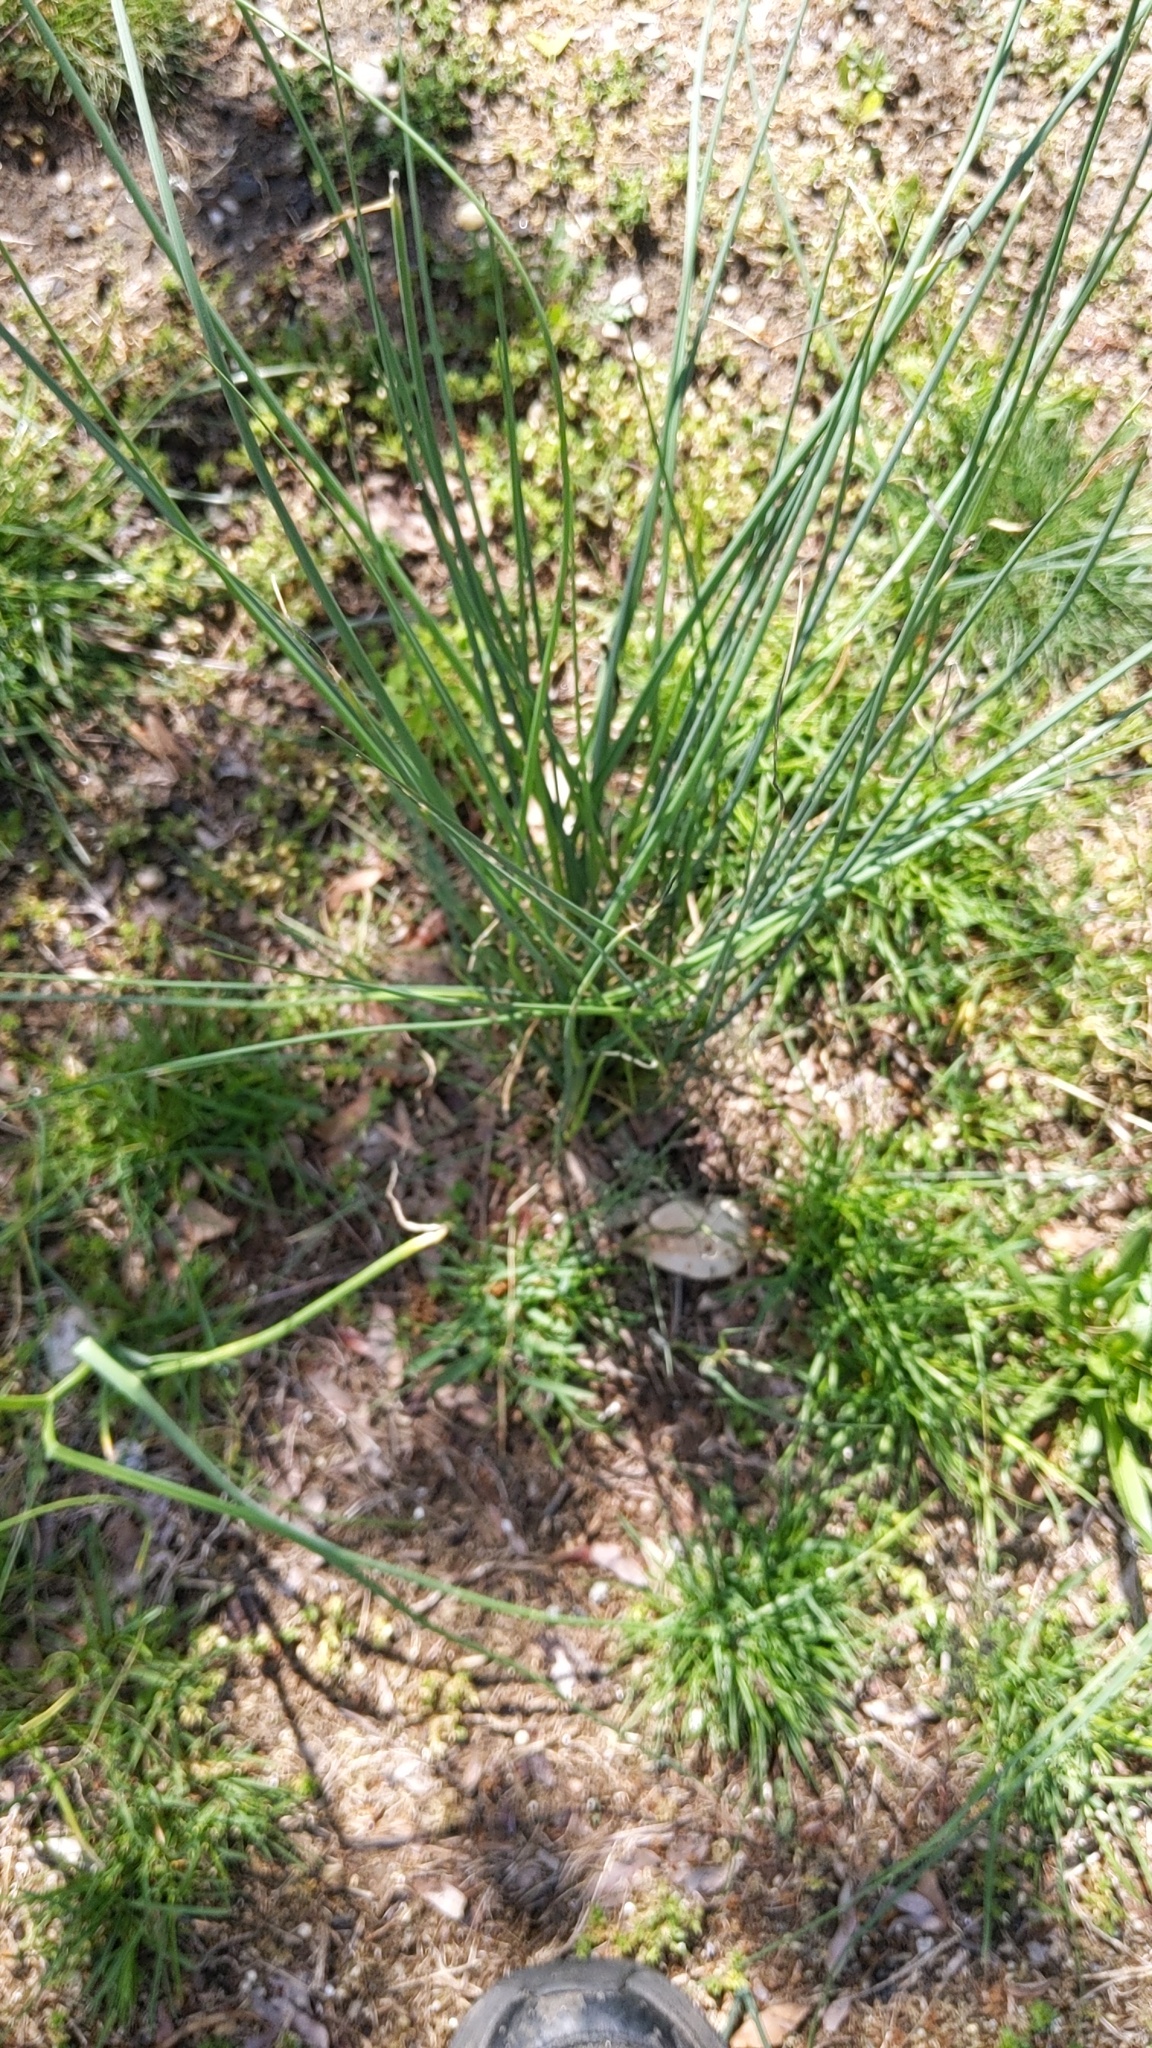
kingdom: Plantae
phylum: Tracheophyta
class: Liliopsida
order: Asparagales
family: Amaryllidaceae
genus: Allium
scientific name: Allium vineale
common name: Crow garlic
